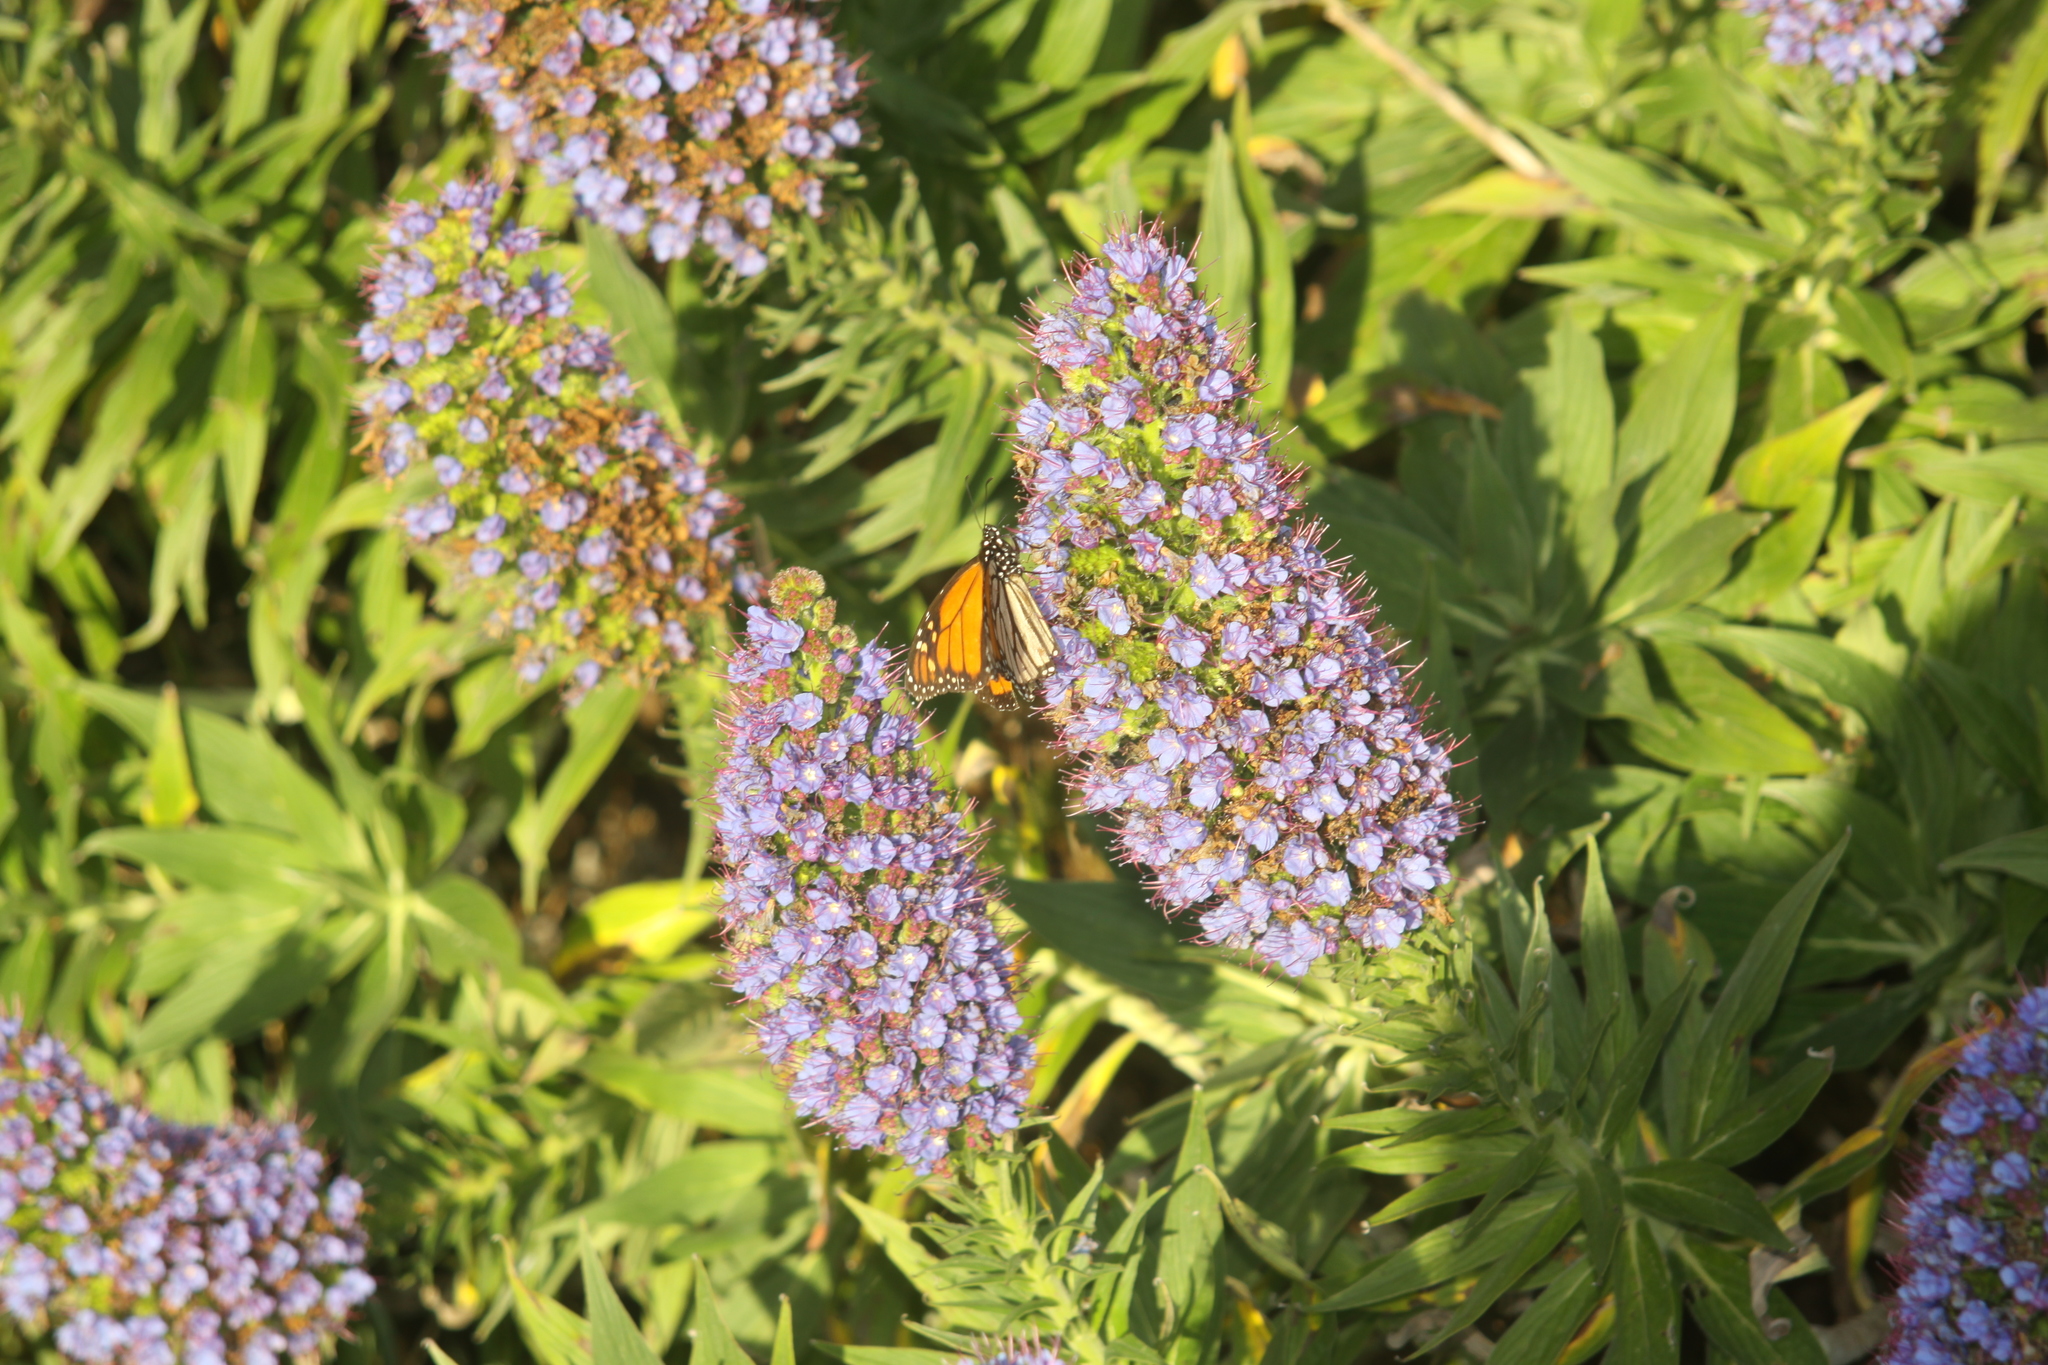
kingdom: Animalia
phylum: Arthropoda
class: Insecta
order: Lepidoptera
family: Nymphalidae
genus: Danaus
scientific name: Danaus plexippus
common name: Monarch
